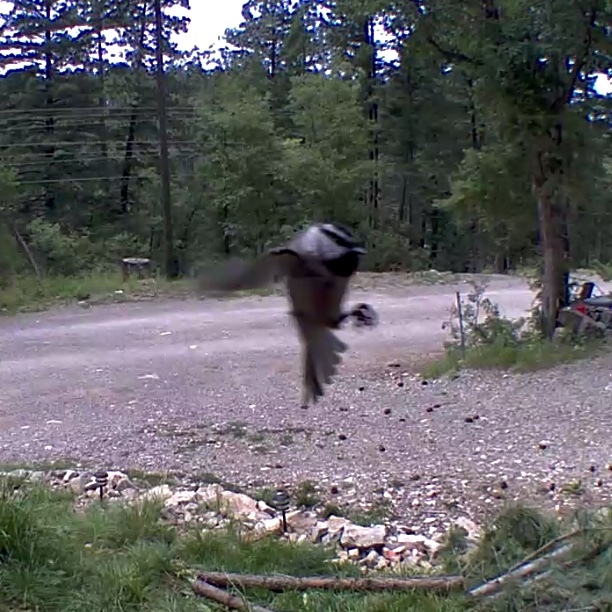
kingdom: Animalia
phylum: Chordata
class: Aves
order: Passeriformes
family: Paridae
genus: Poecile
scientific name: Poecile gambeli
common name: Mountain chickadee
